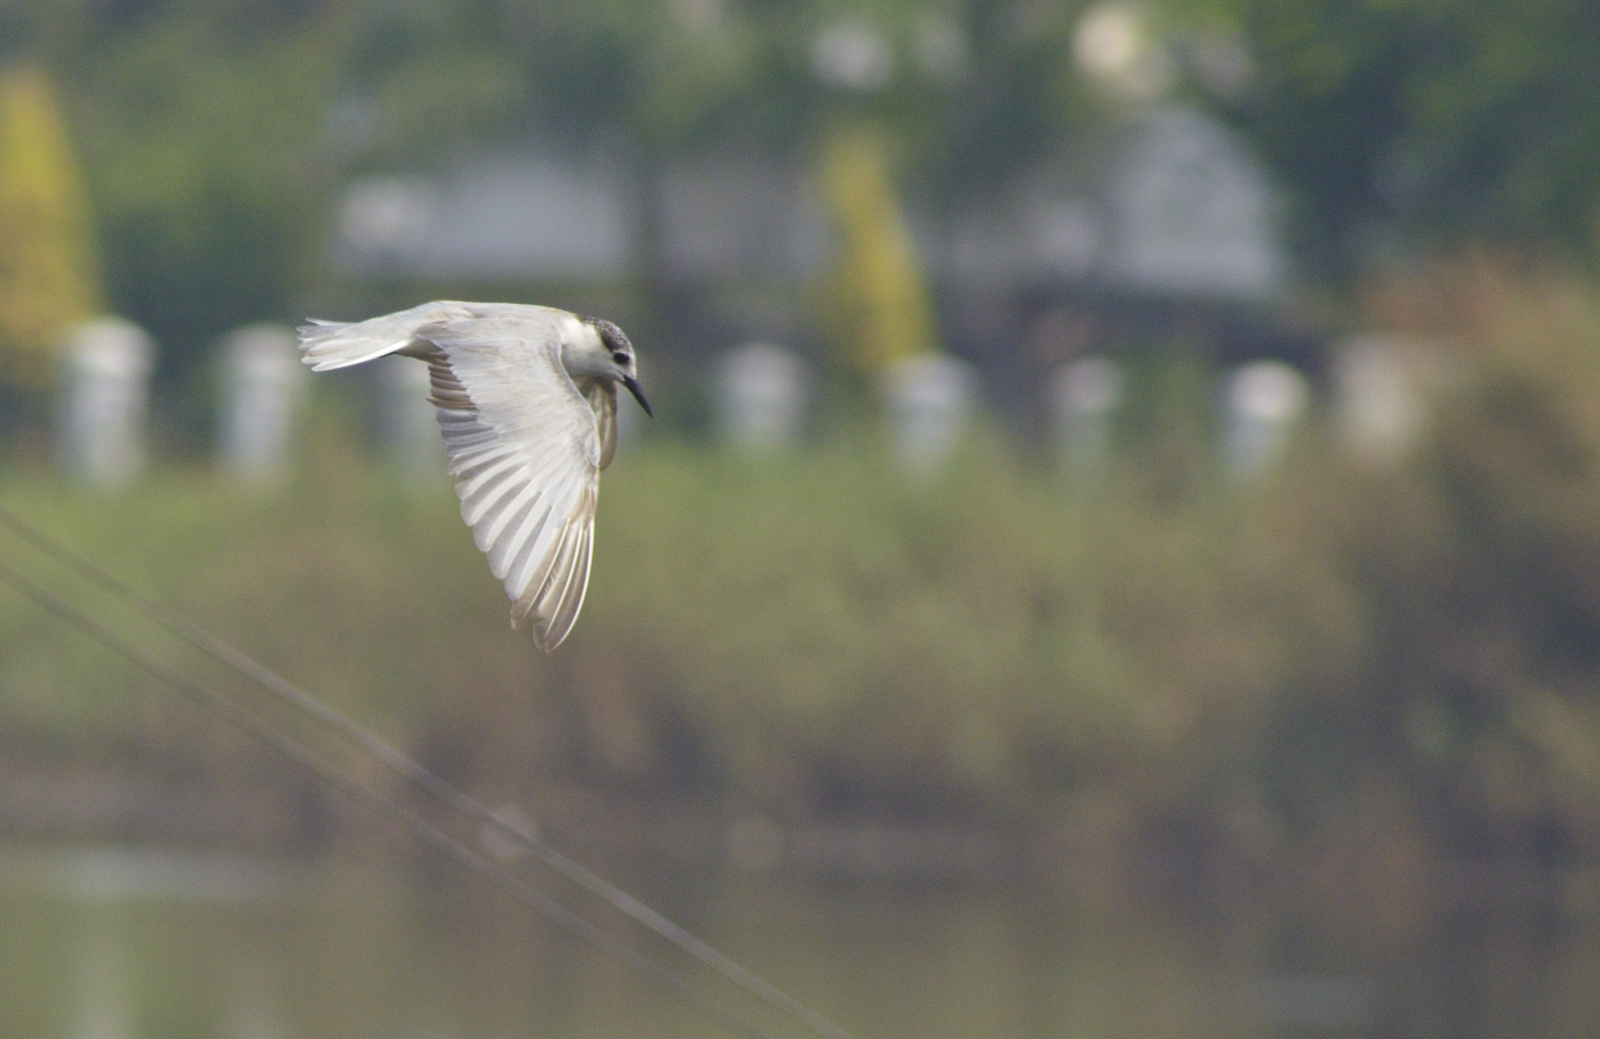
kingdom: Animalia
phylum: Chordata
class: Aves
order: Charadriiformes
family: Laridae
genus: Chlidonias
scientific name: Chlidonias hybrida
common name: Whiskered tern
